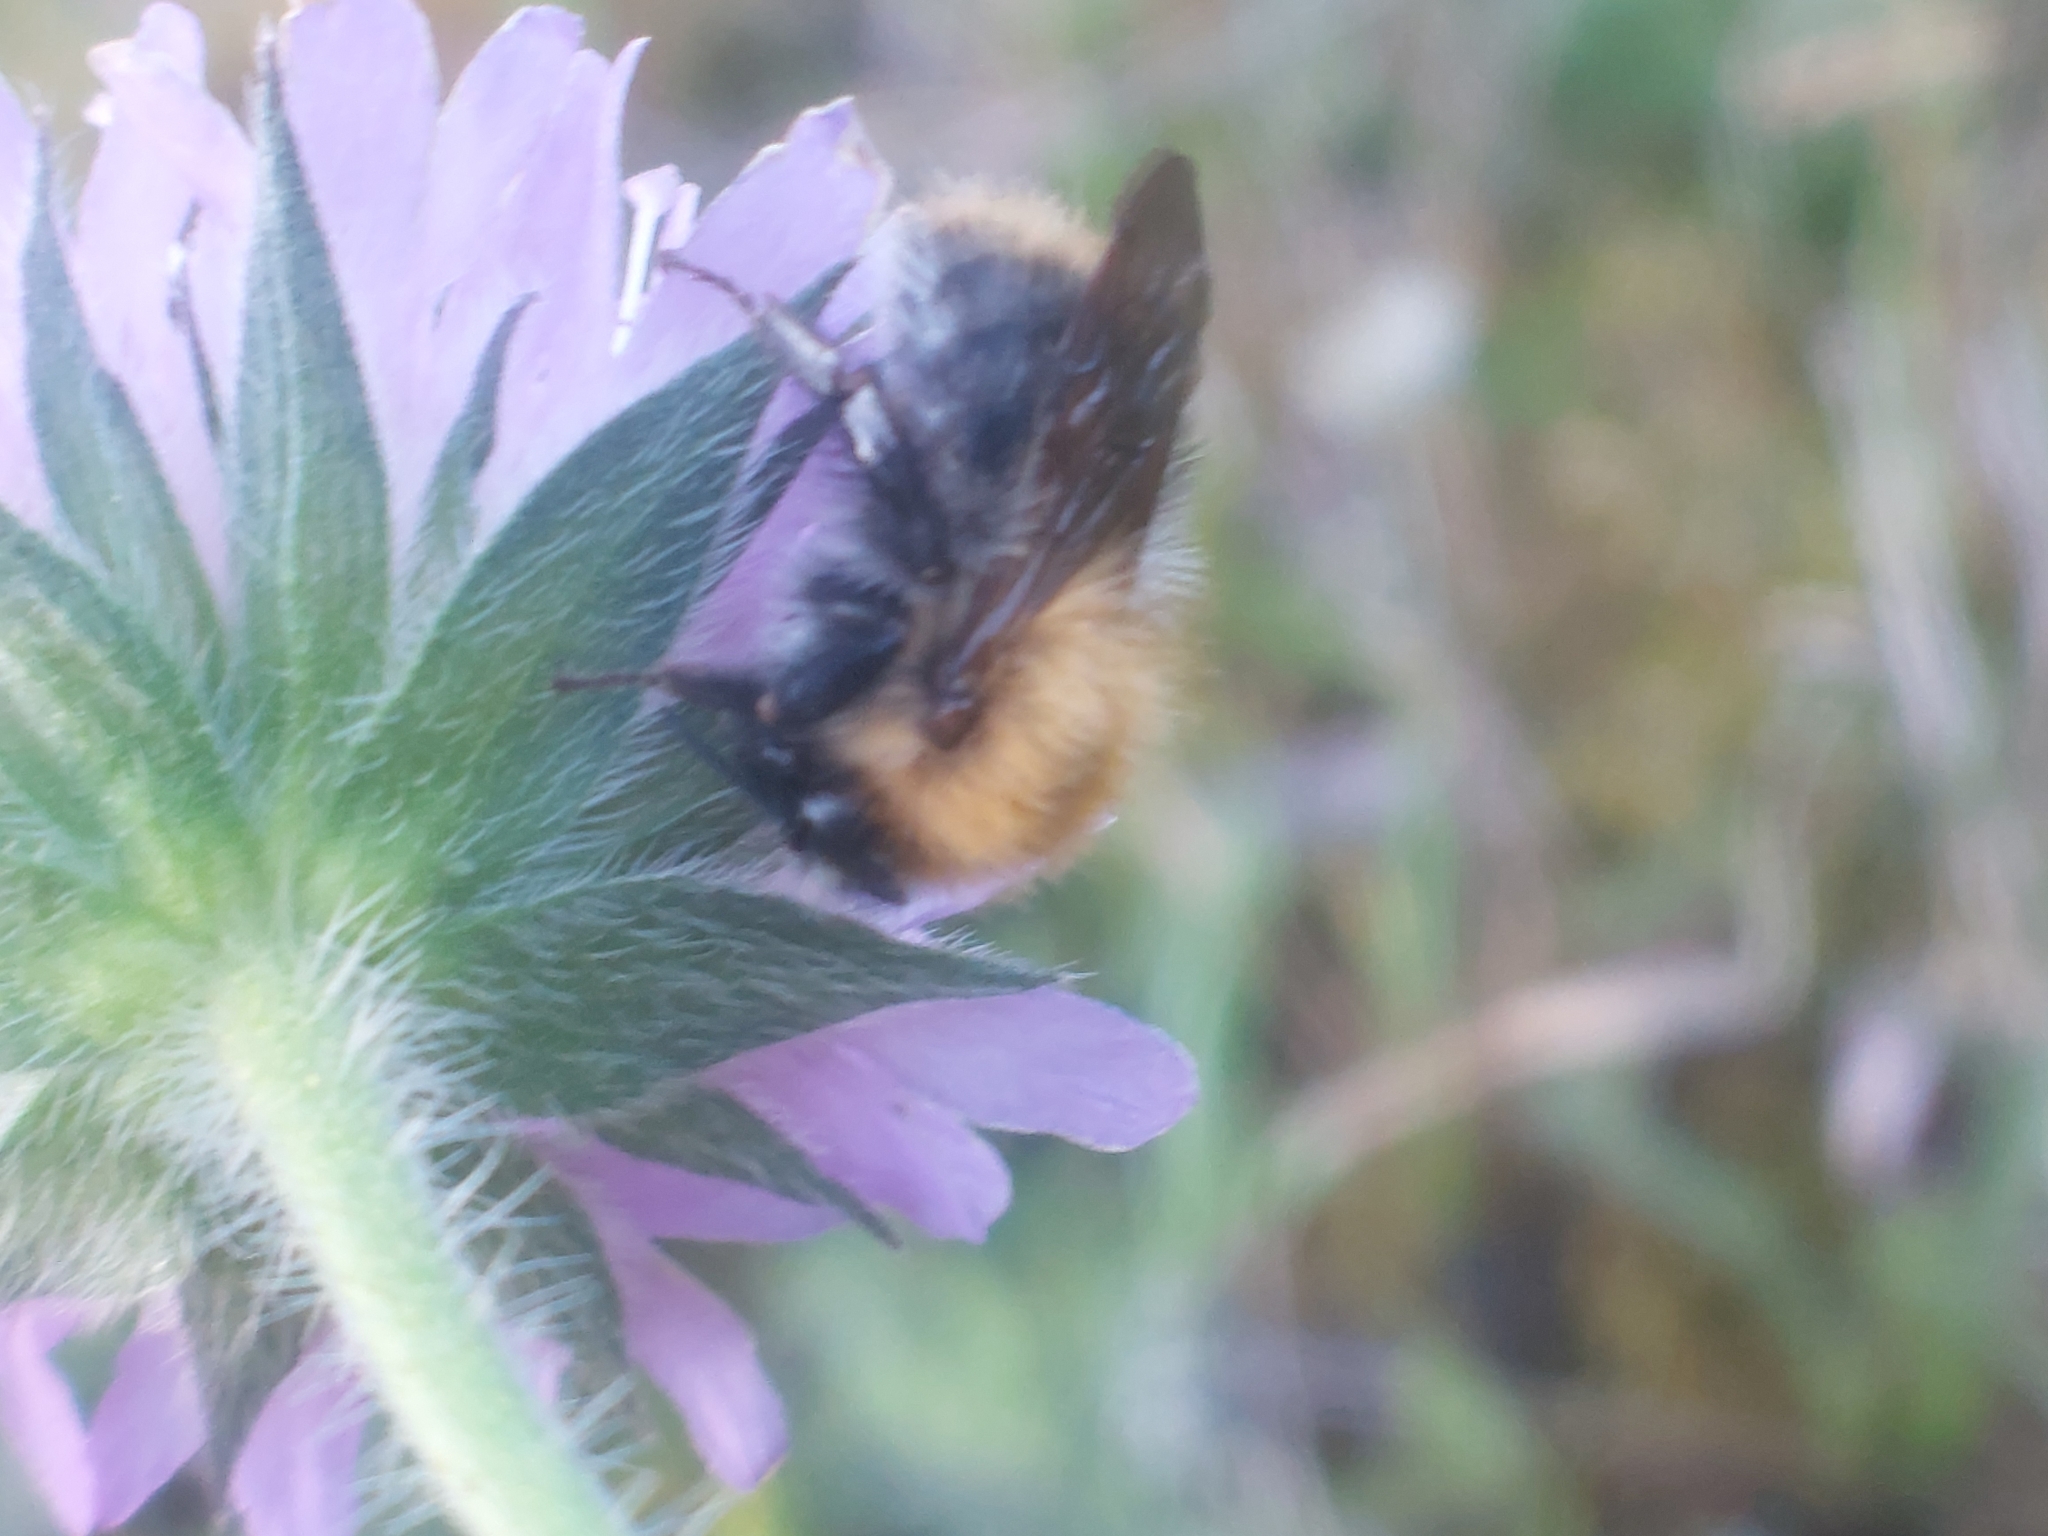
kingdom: Animalia
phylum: Arthropoda
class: Insecta
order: Hymenoptera
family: Apidae
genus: Bombus
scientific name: Bombus pascuorum
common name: Common carder bee
